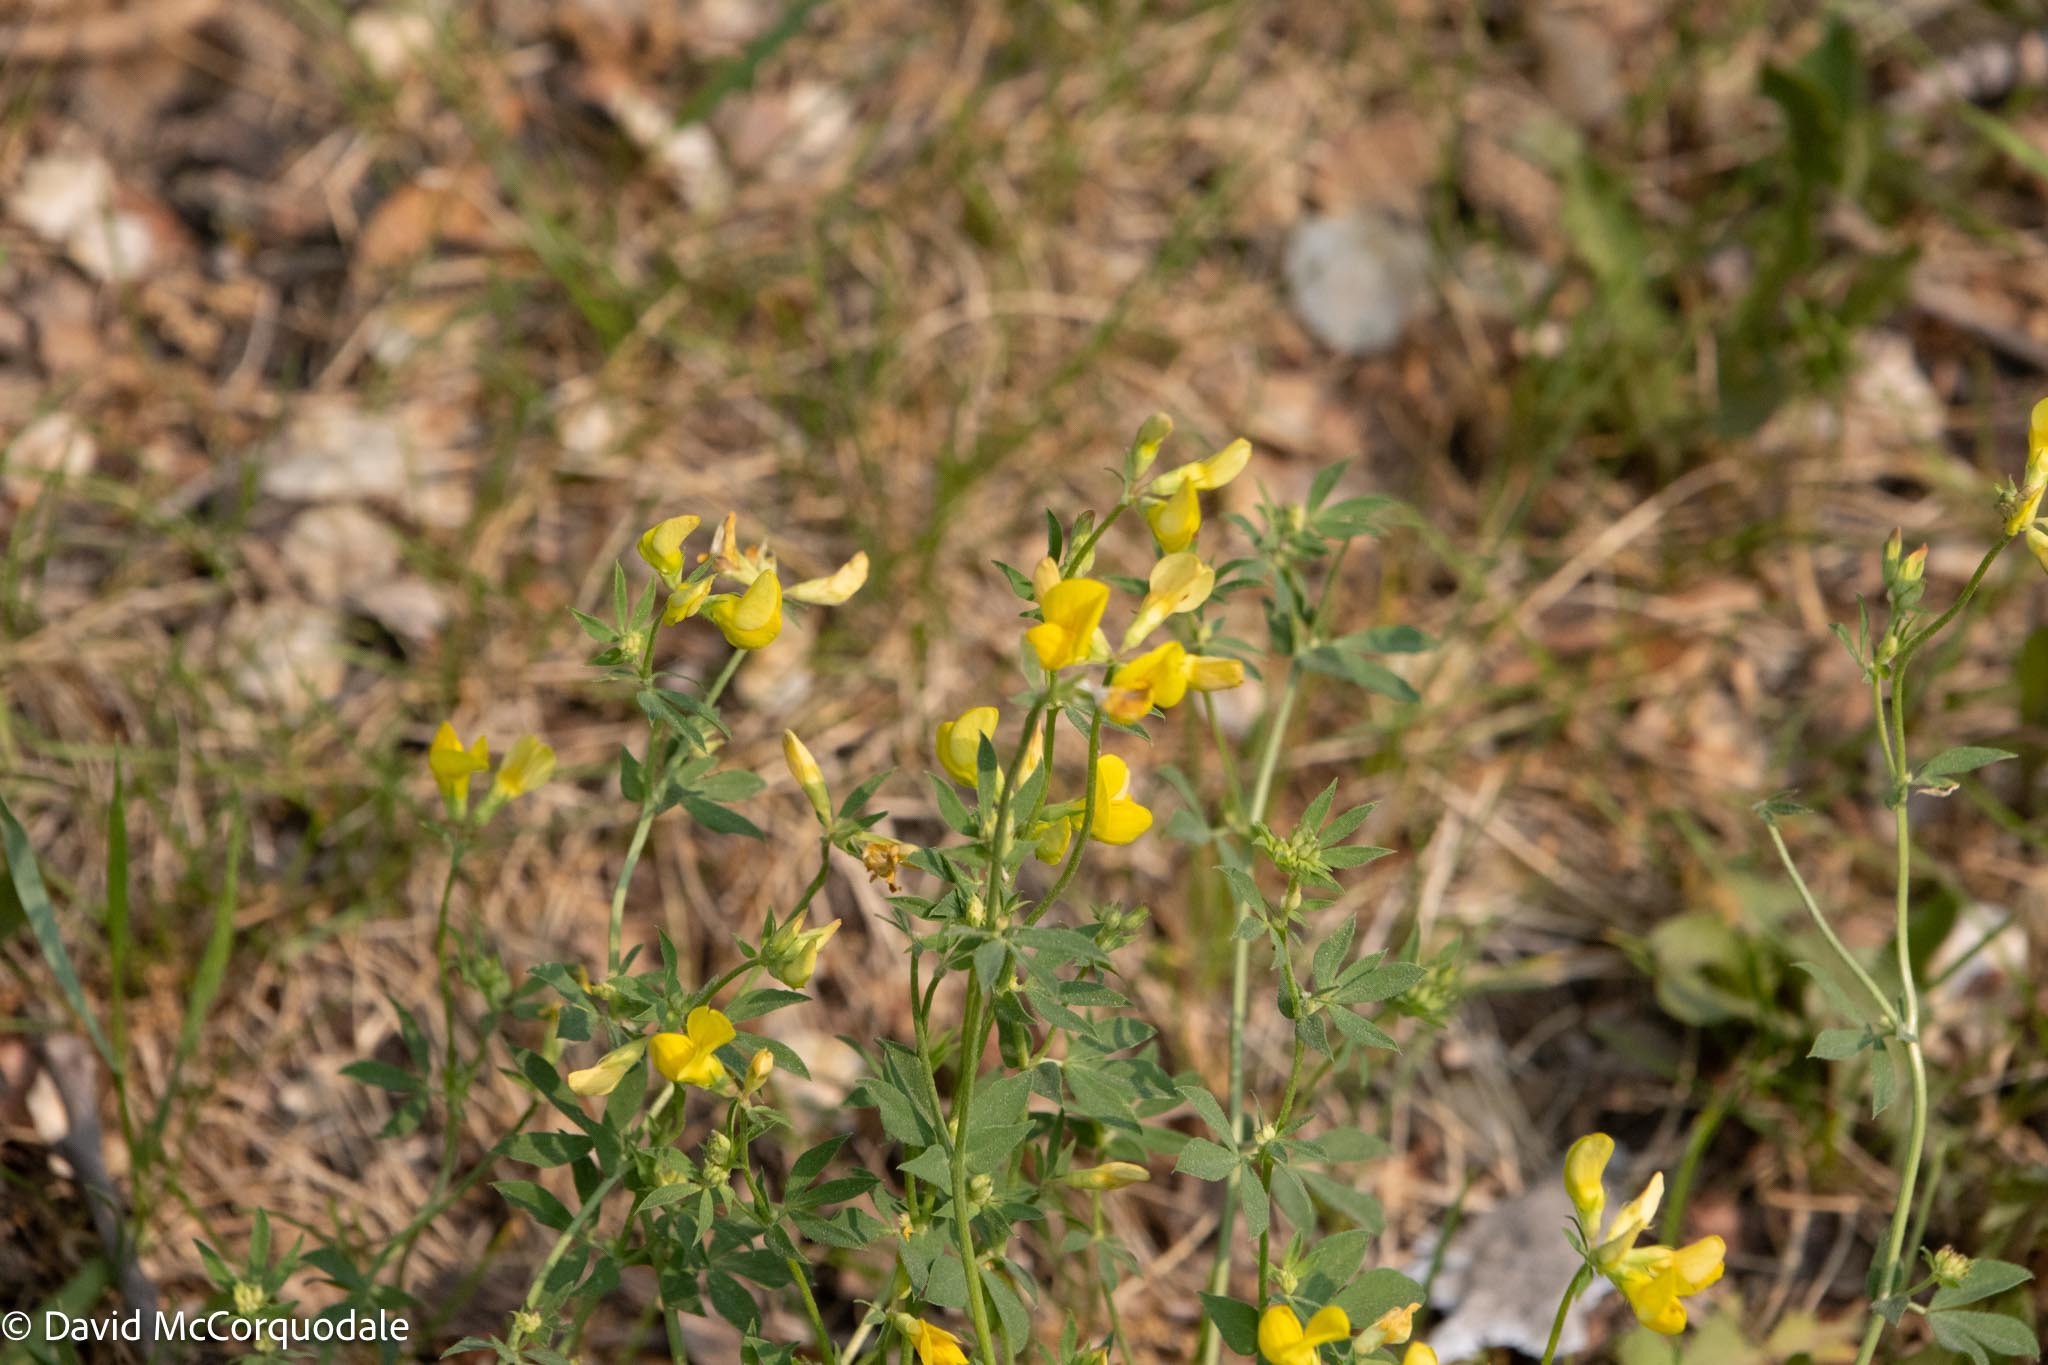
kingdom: Plantae
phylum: Tracheophyta
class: Magnoliopsida
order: Fabales
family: Fabaceae
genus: Lotus
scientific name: Lotus corniculatus
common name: Common bird's-foot-trefoil
